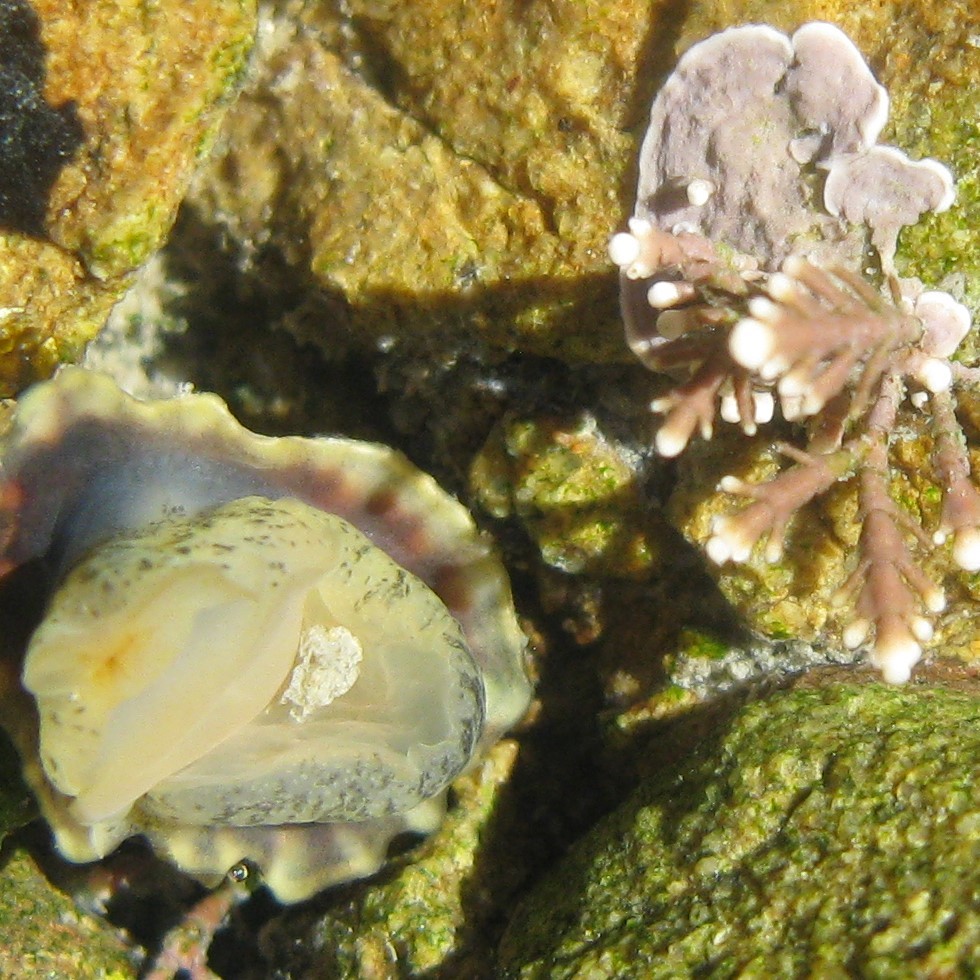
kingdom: Animalia
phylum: Mollusca
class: Gastropoda
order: Siphonariida
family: Siphonariidae
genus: Siphonaria
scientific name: Siphonaria australis
